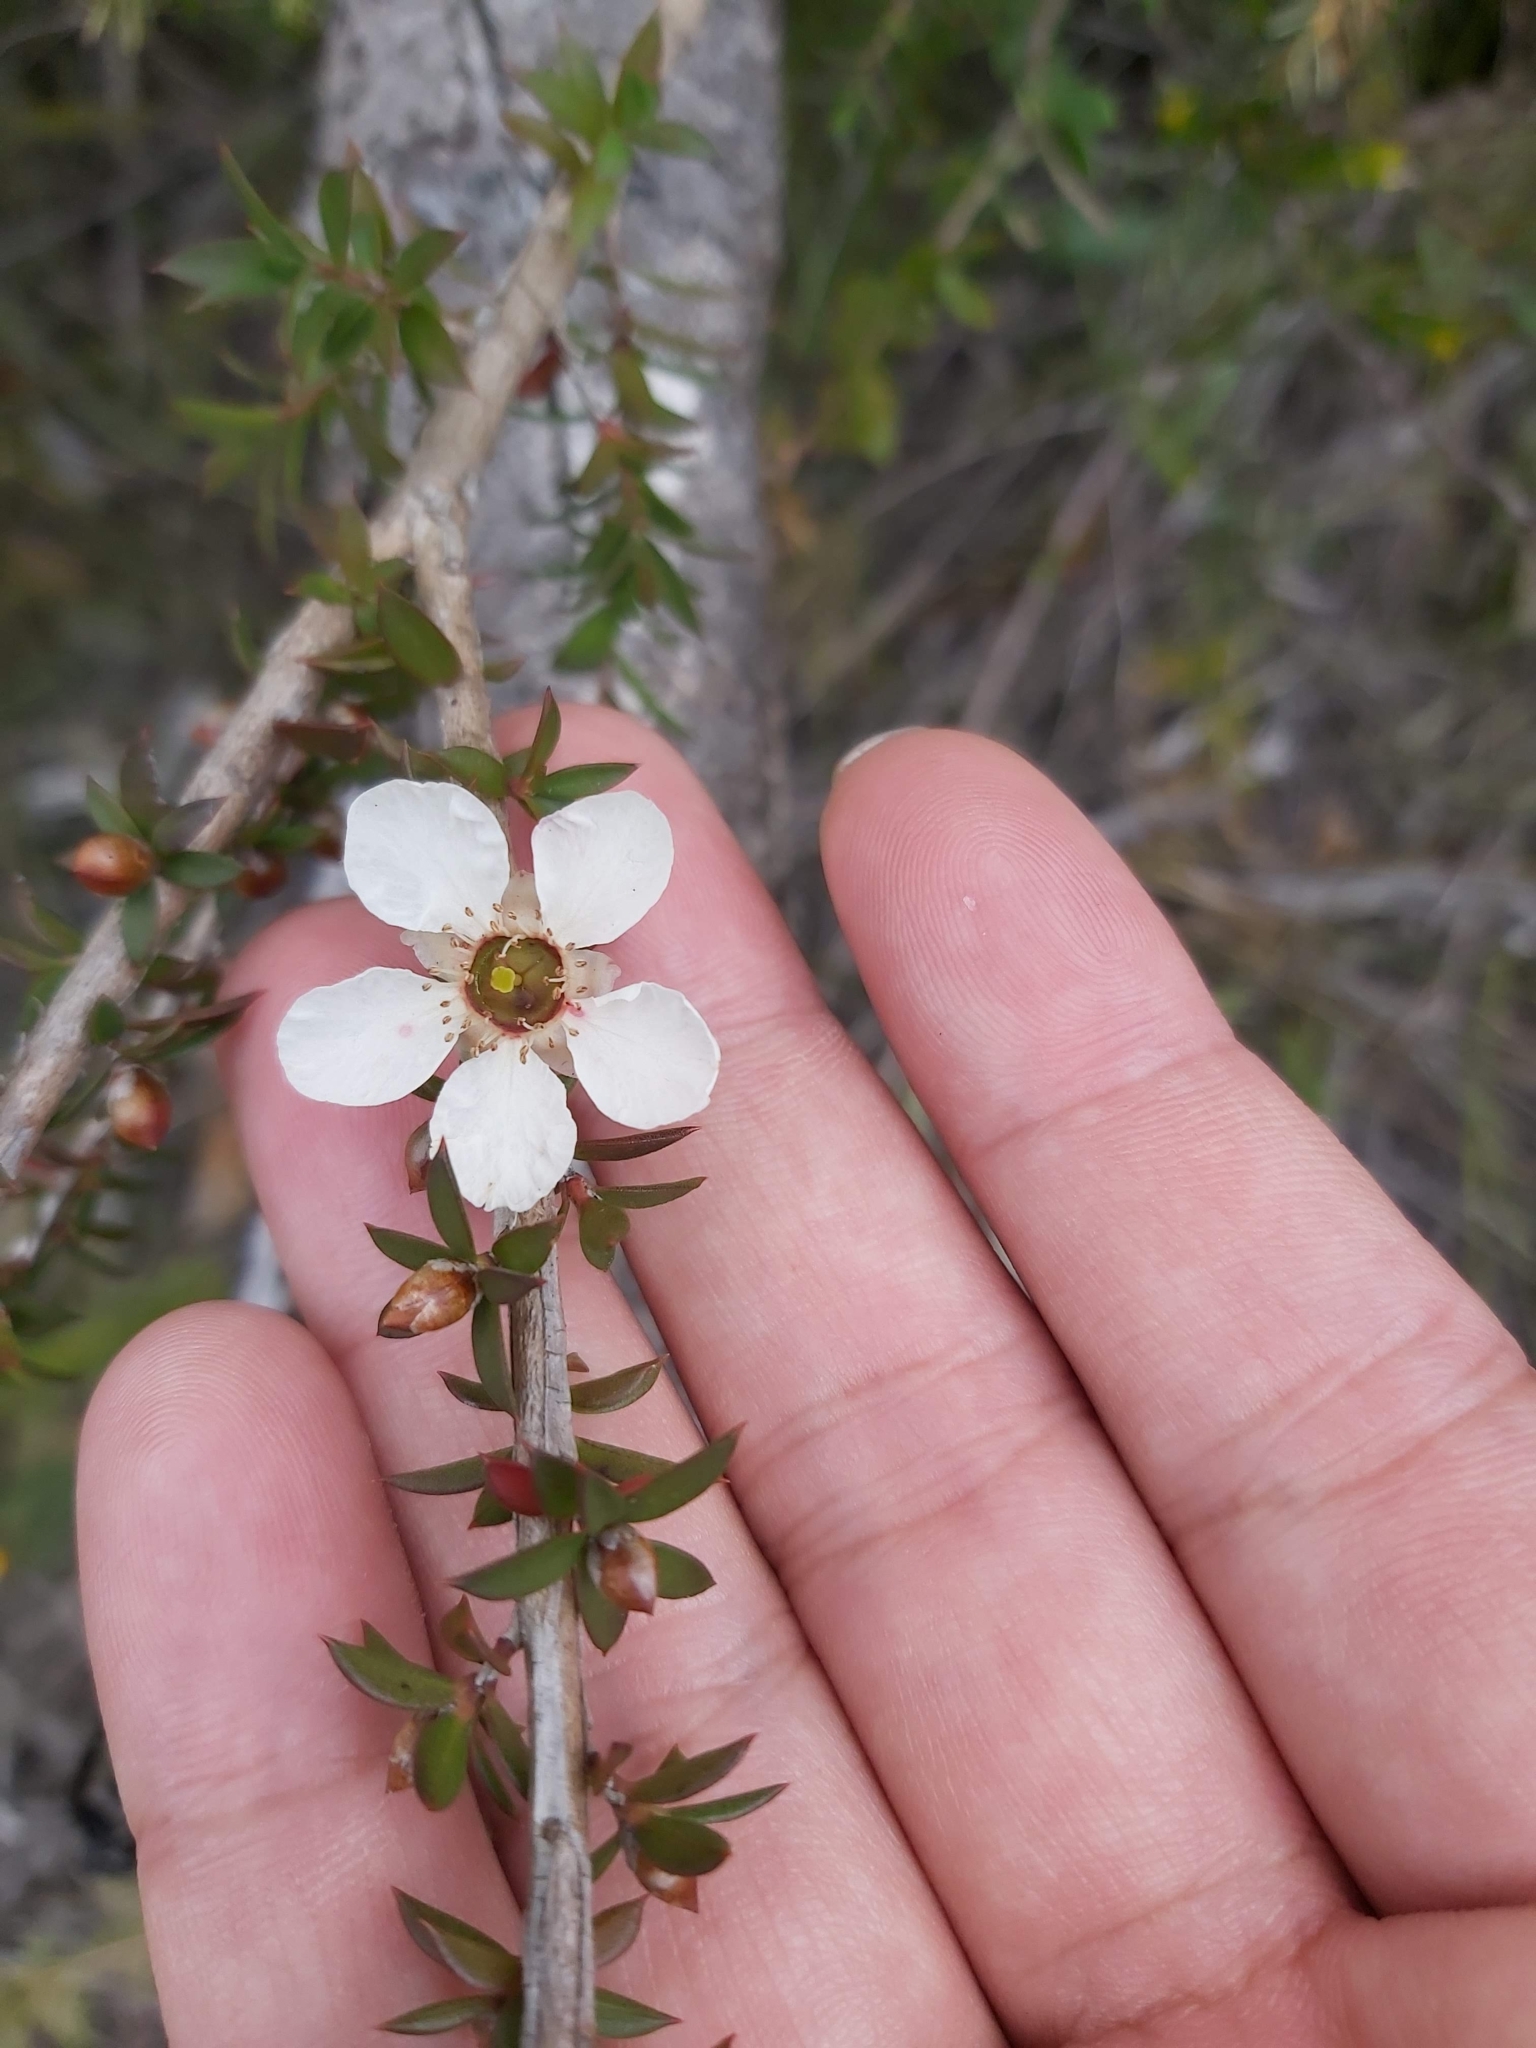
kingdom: Plantae
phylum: Tracheophyta
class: Magnoliopsida
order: Myrtales
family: Myrtaceae
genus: Leptospermum
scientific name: Leptospermum squarrosum
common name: Peach-blossom teatree
